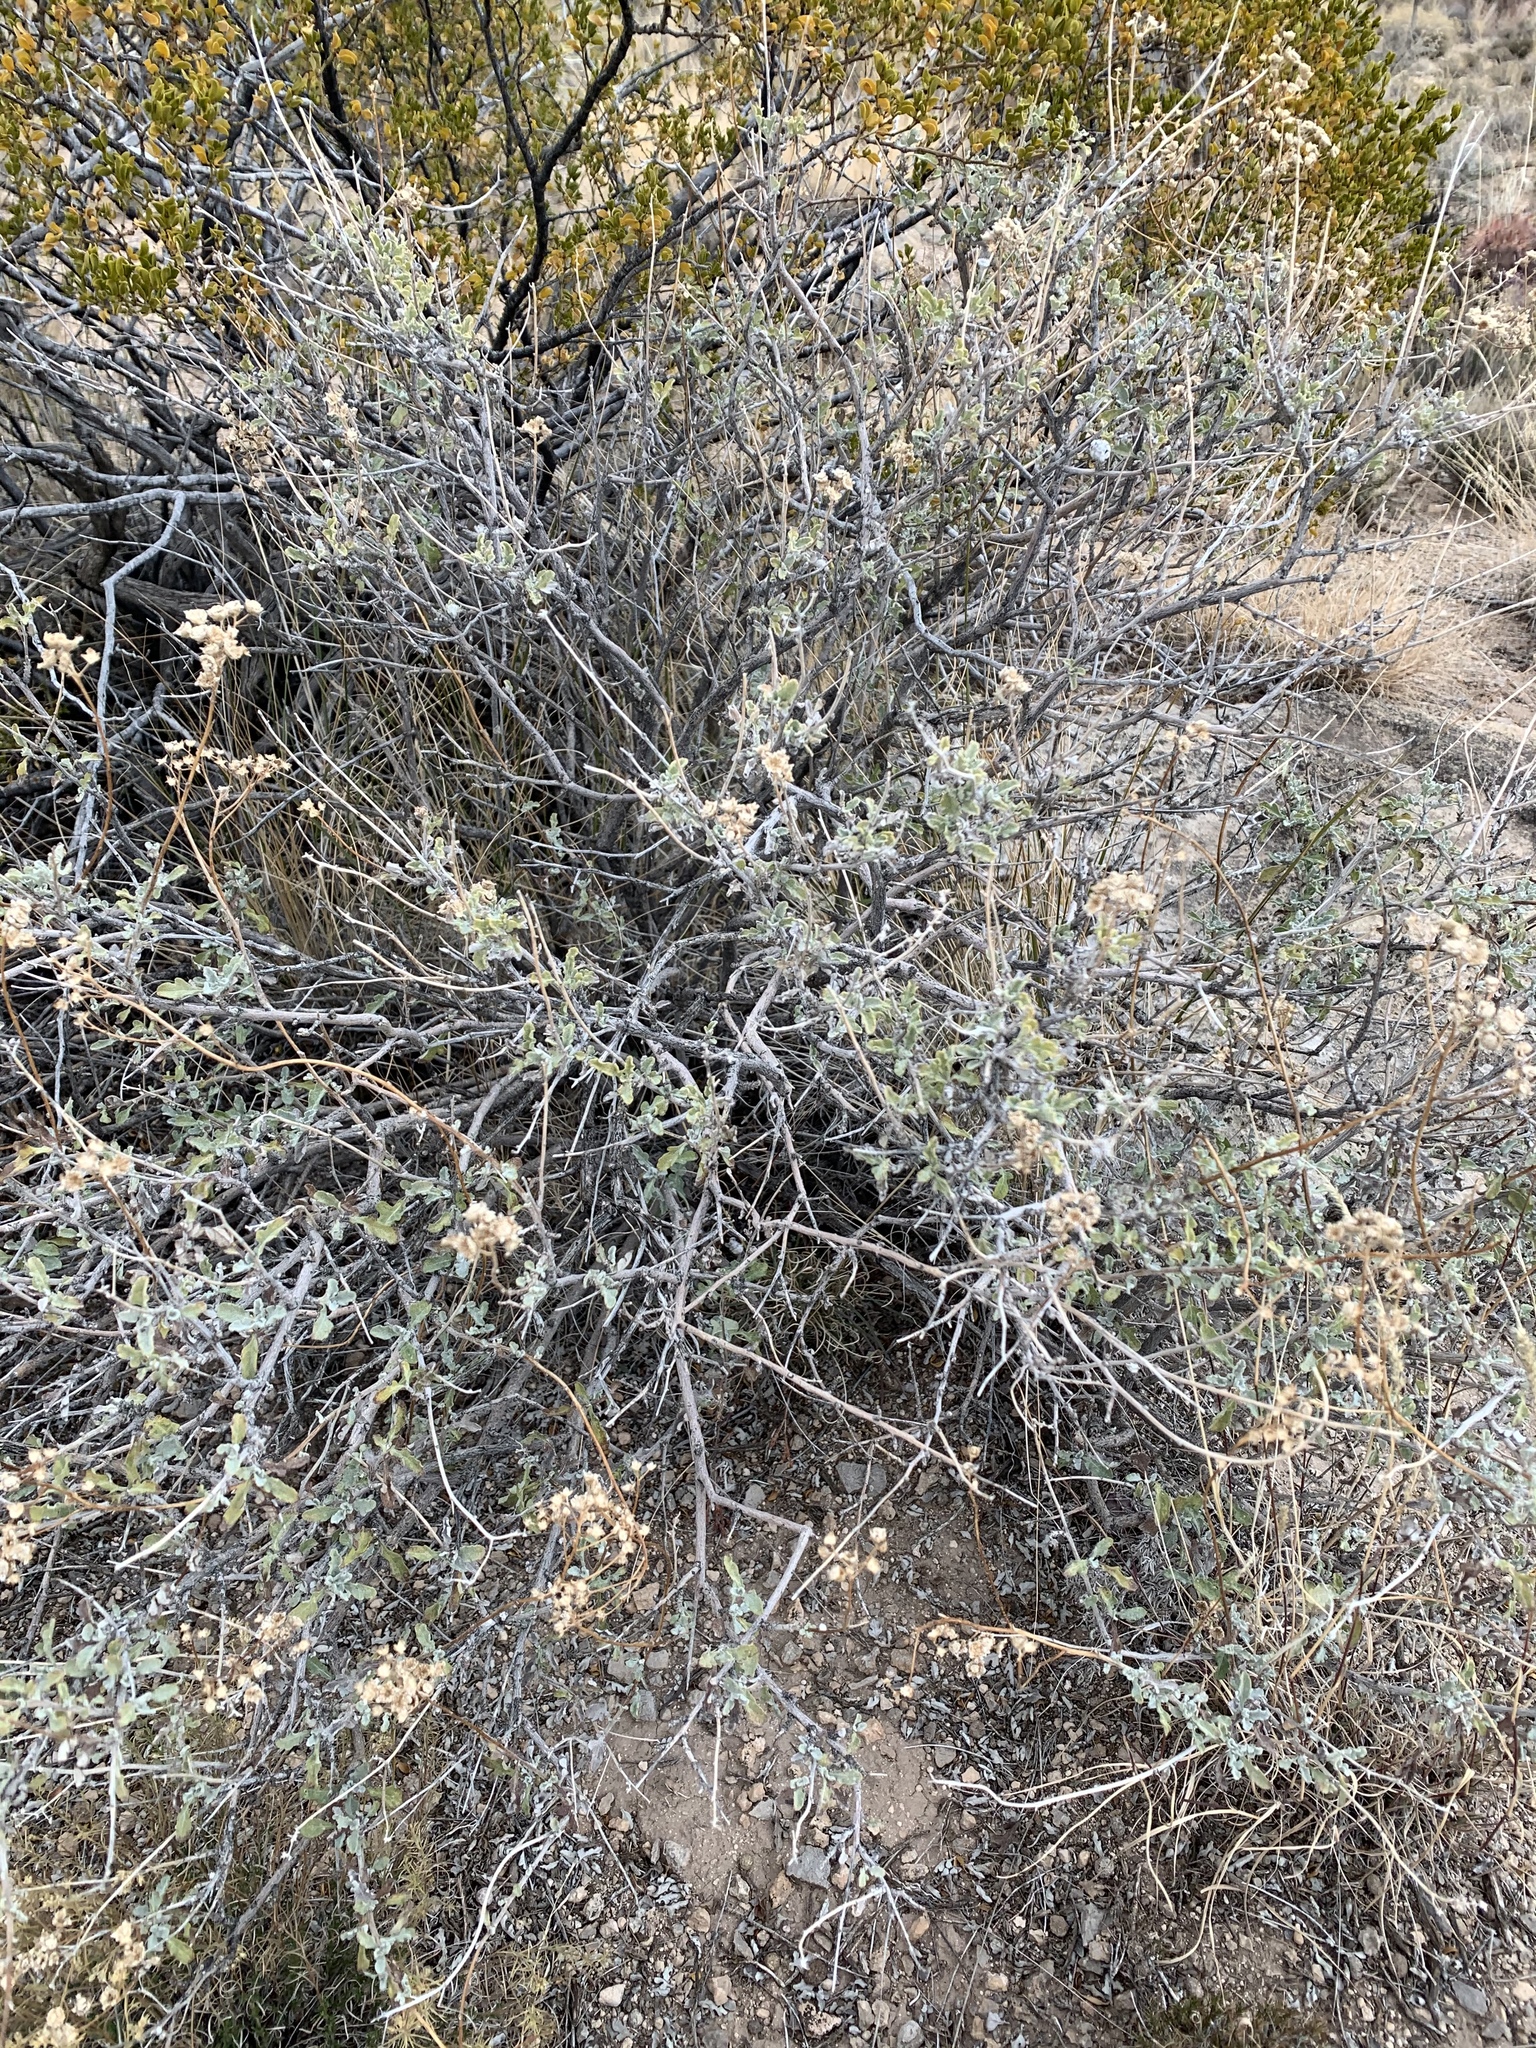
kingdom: Plantae
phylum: Tracheophyta
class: Magnoliopsida
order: Asterales
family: Asteraceae
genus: Parthenium
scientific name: Parthenium incanum
